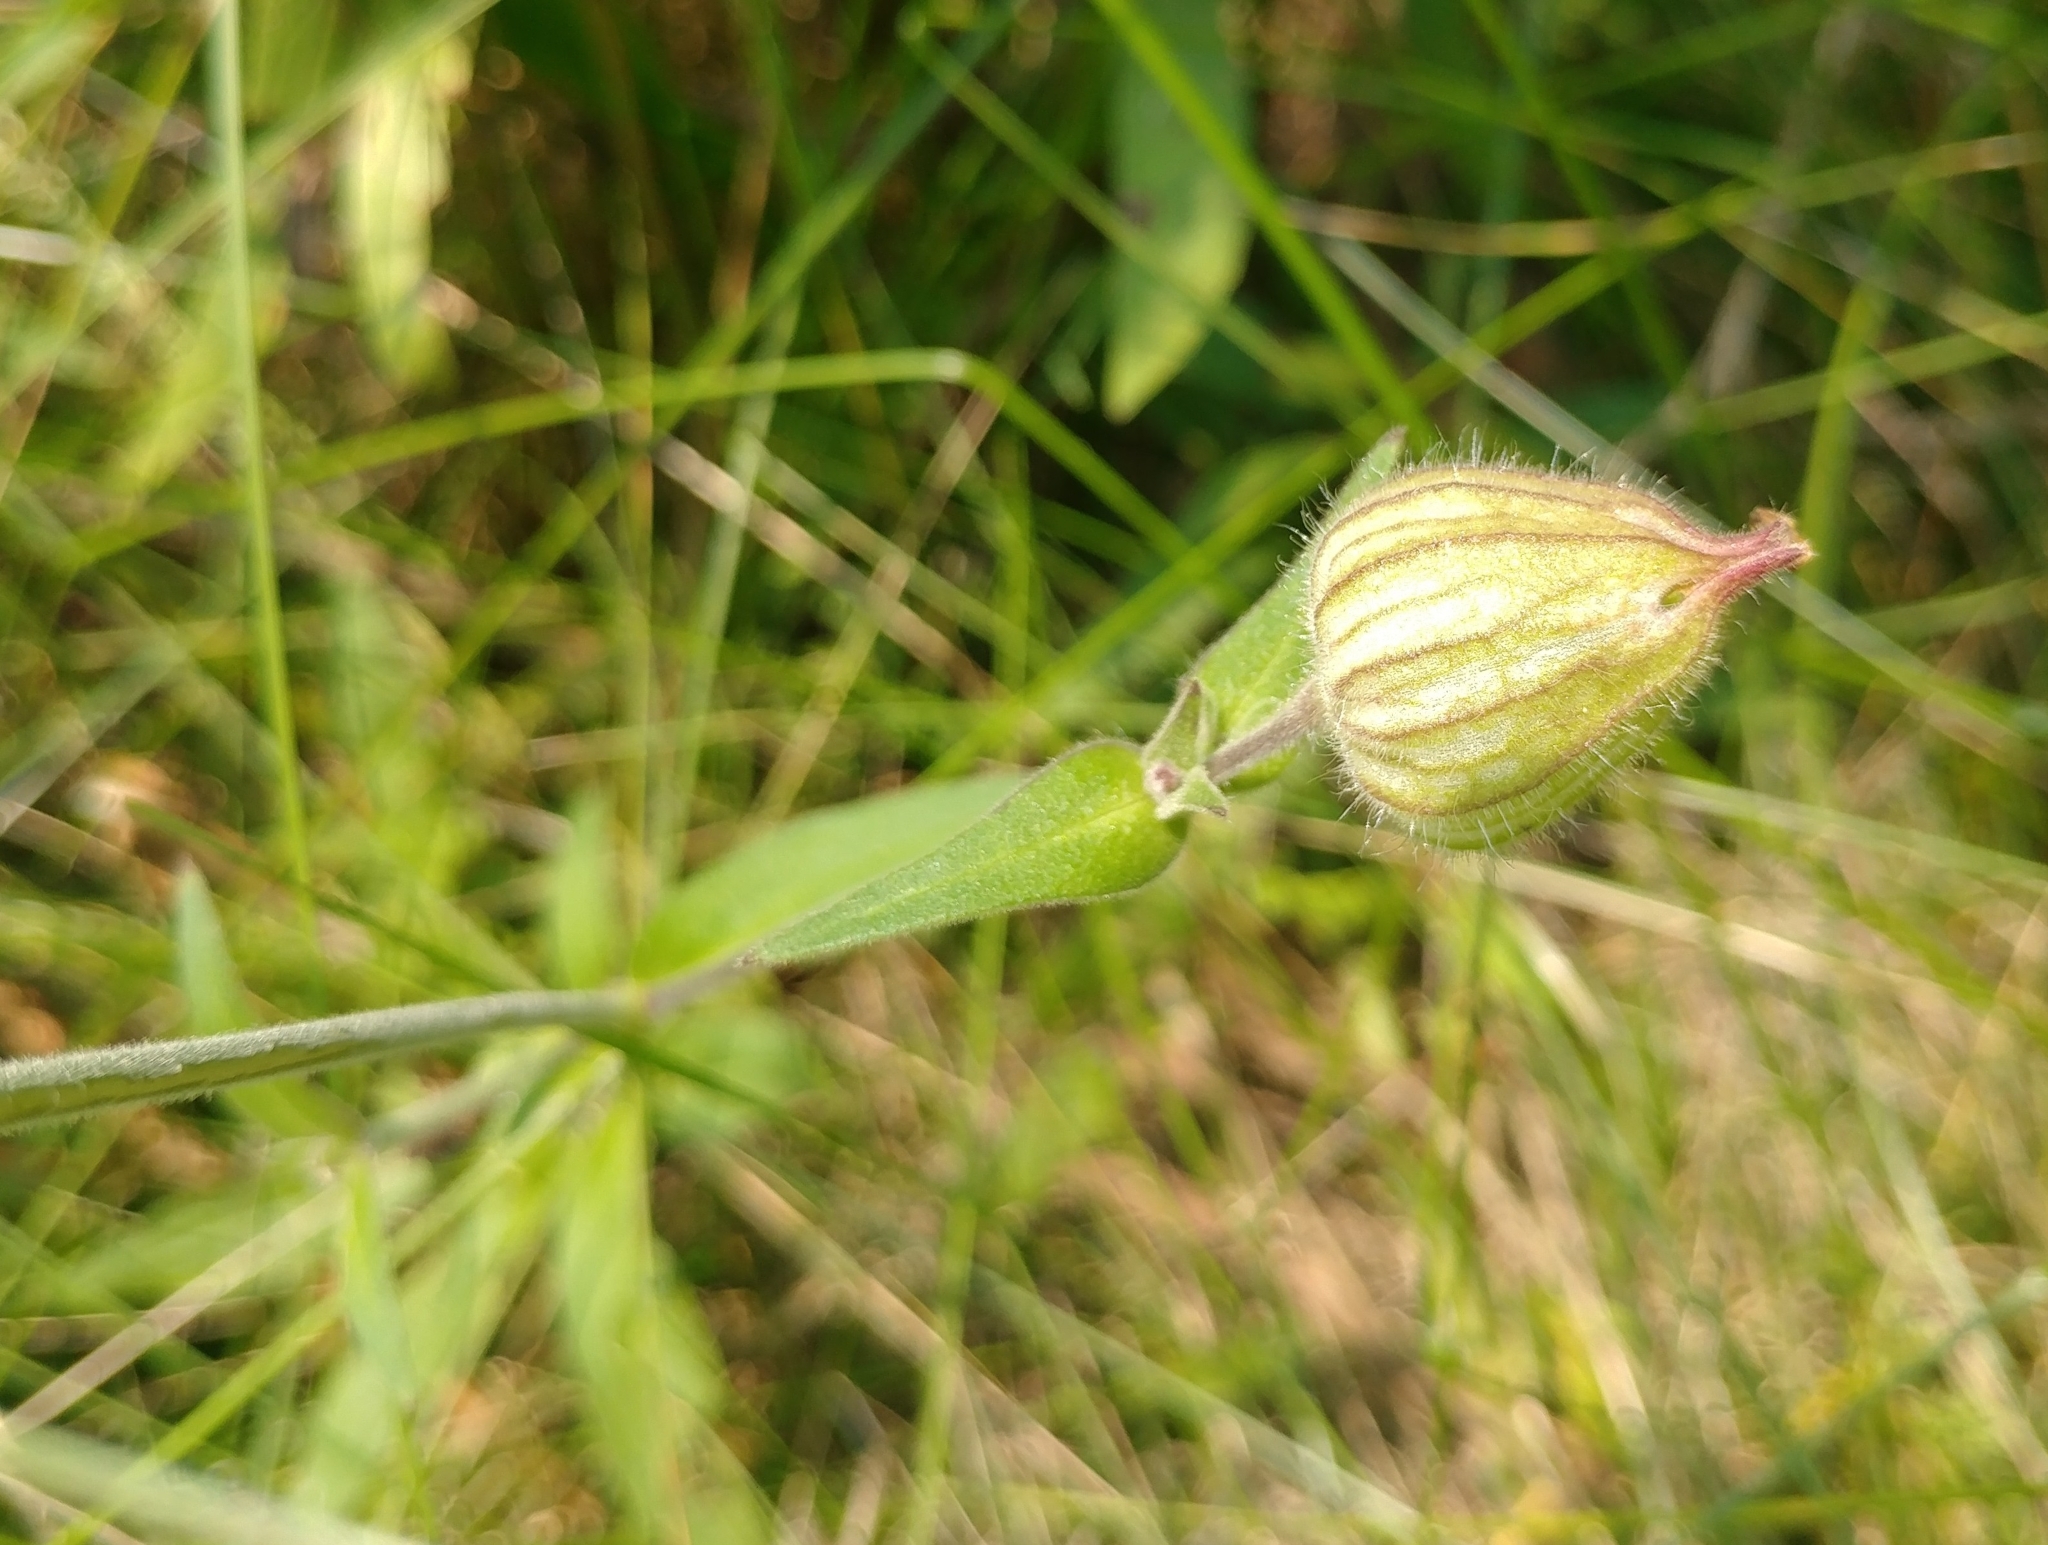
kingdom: Plantae
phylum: Tracheophyta
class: Magnoliopsida
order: Caryophyllales
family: Caryophyllaceae
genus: Silene
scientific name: Silene latifolia
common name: White campion
